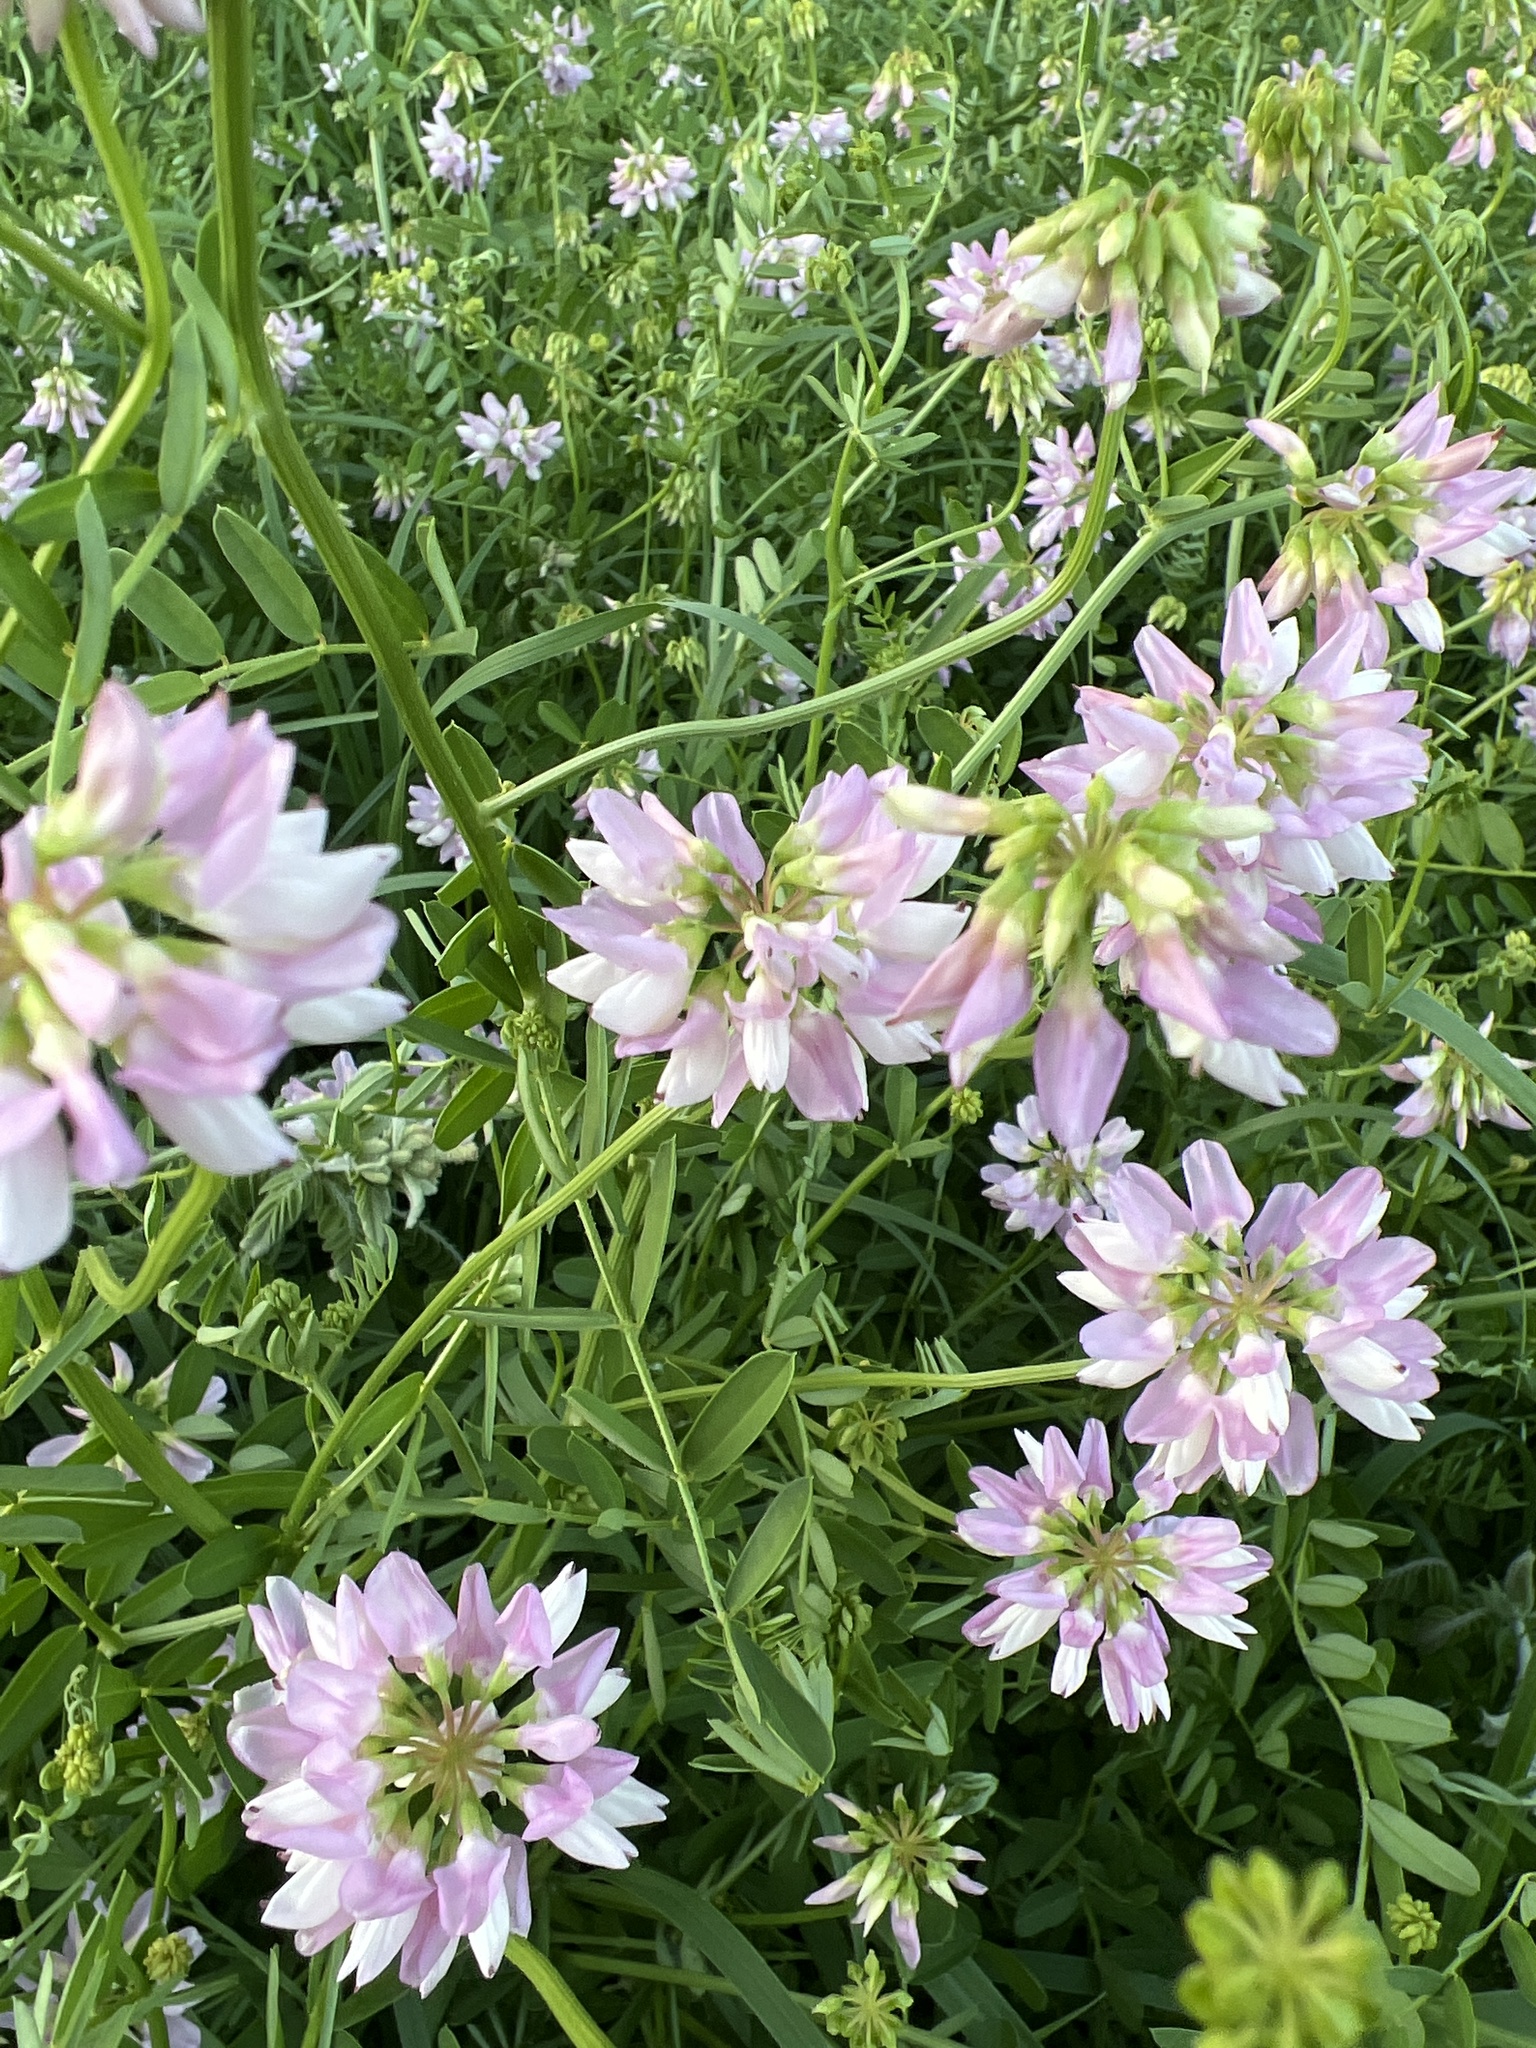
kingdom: Plantae
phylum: Tracheophyta
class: Magnoliopsida
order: Fabales
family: Fabaceae
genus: Coronilla
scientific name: Coronilla varia
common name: Crownvetch
